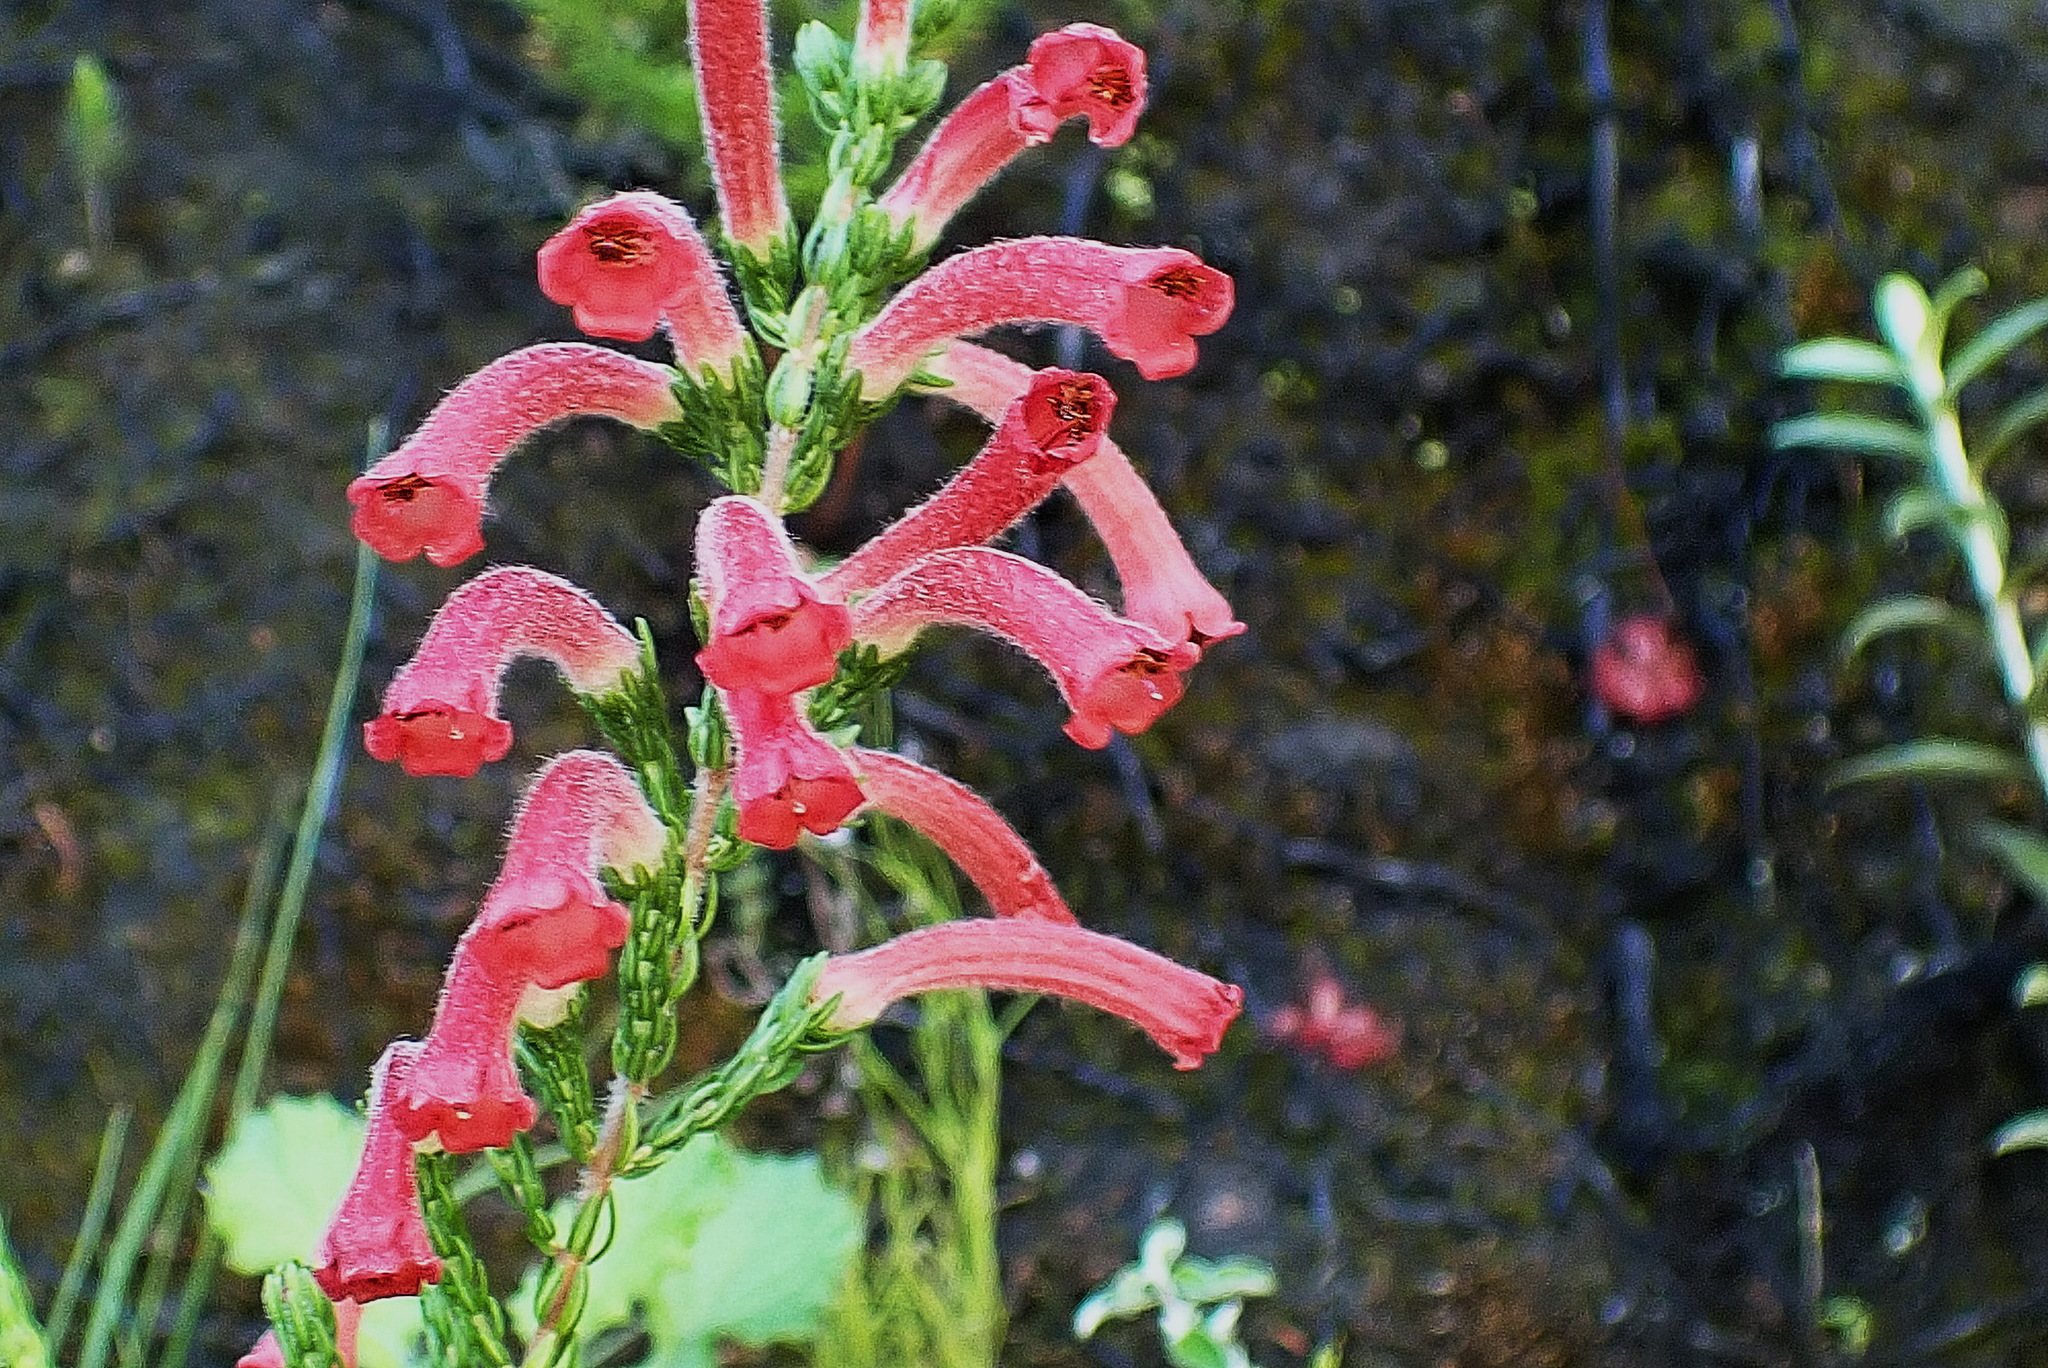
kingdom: Plantae
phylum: Tracheophyta
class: Magnoliopsida
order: Ericales
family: Ericaceae
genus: Erica
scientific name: Erica curviflora
